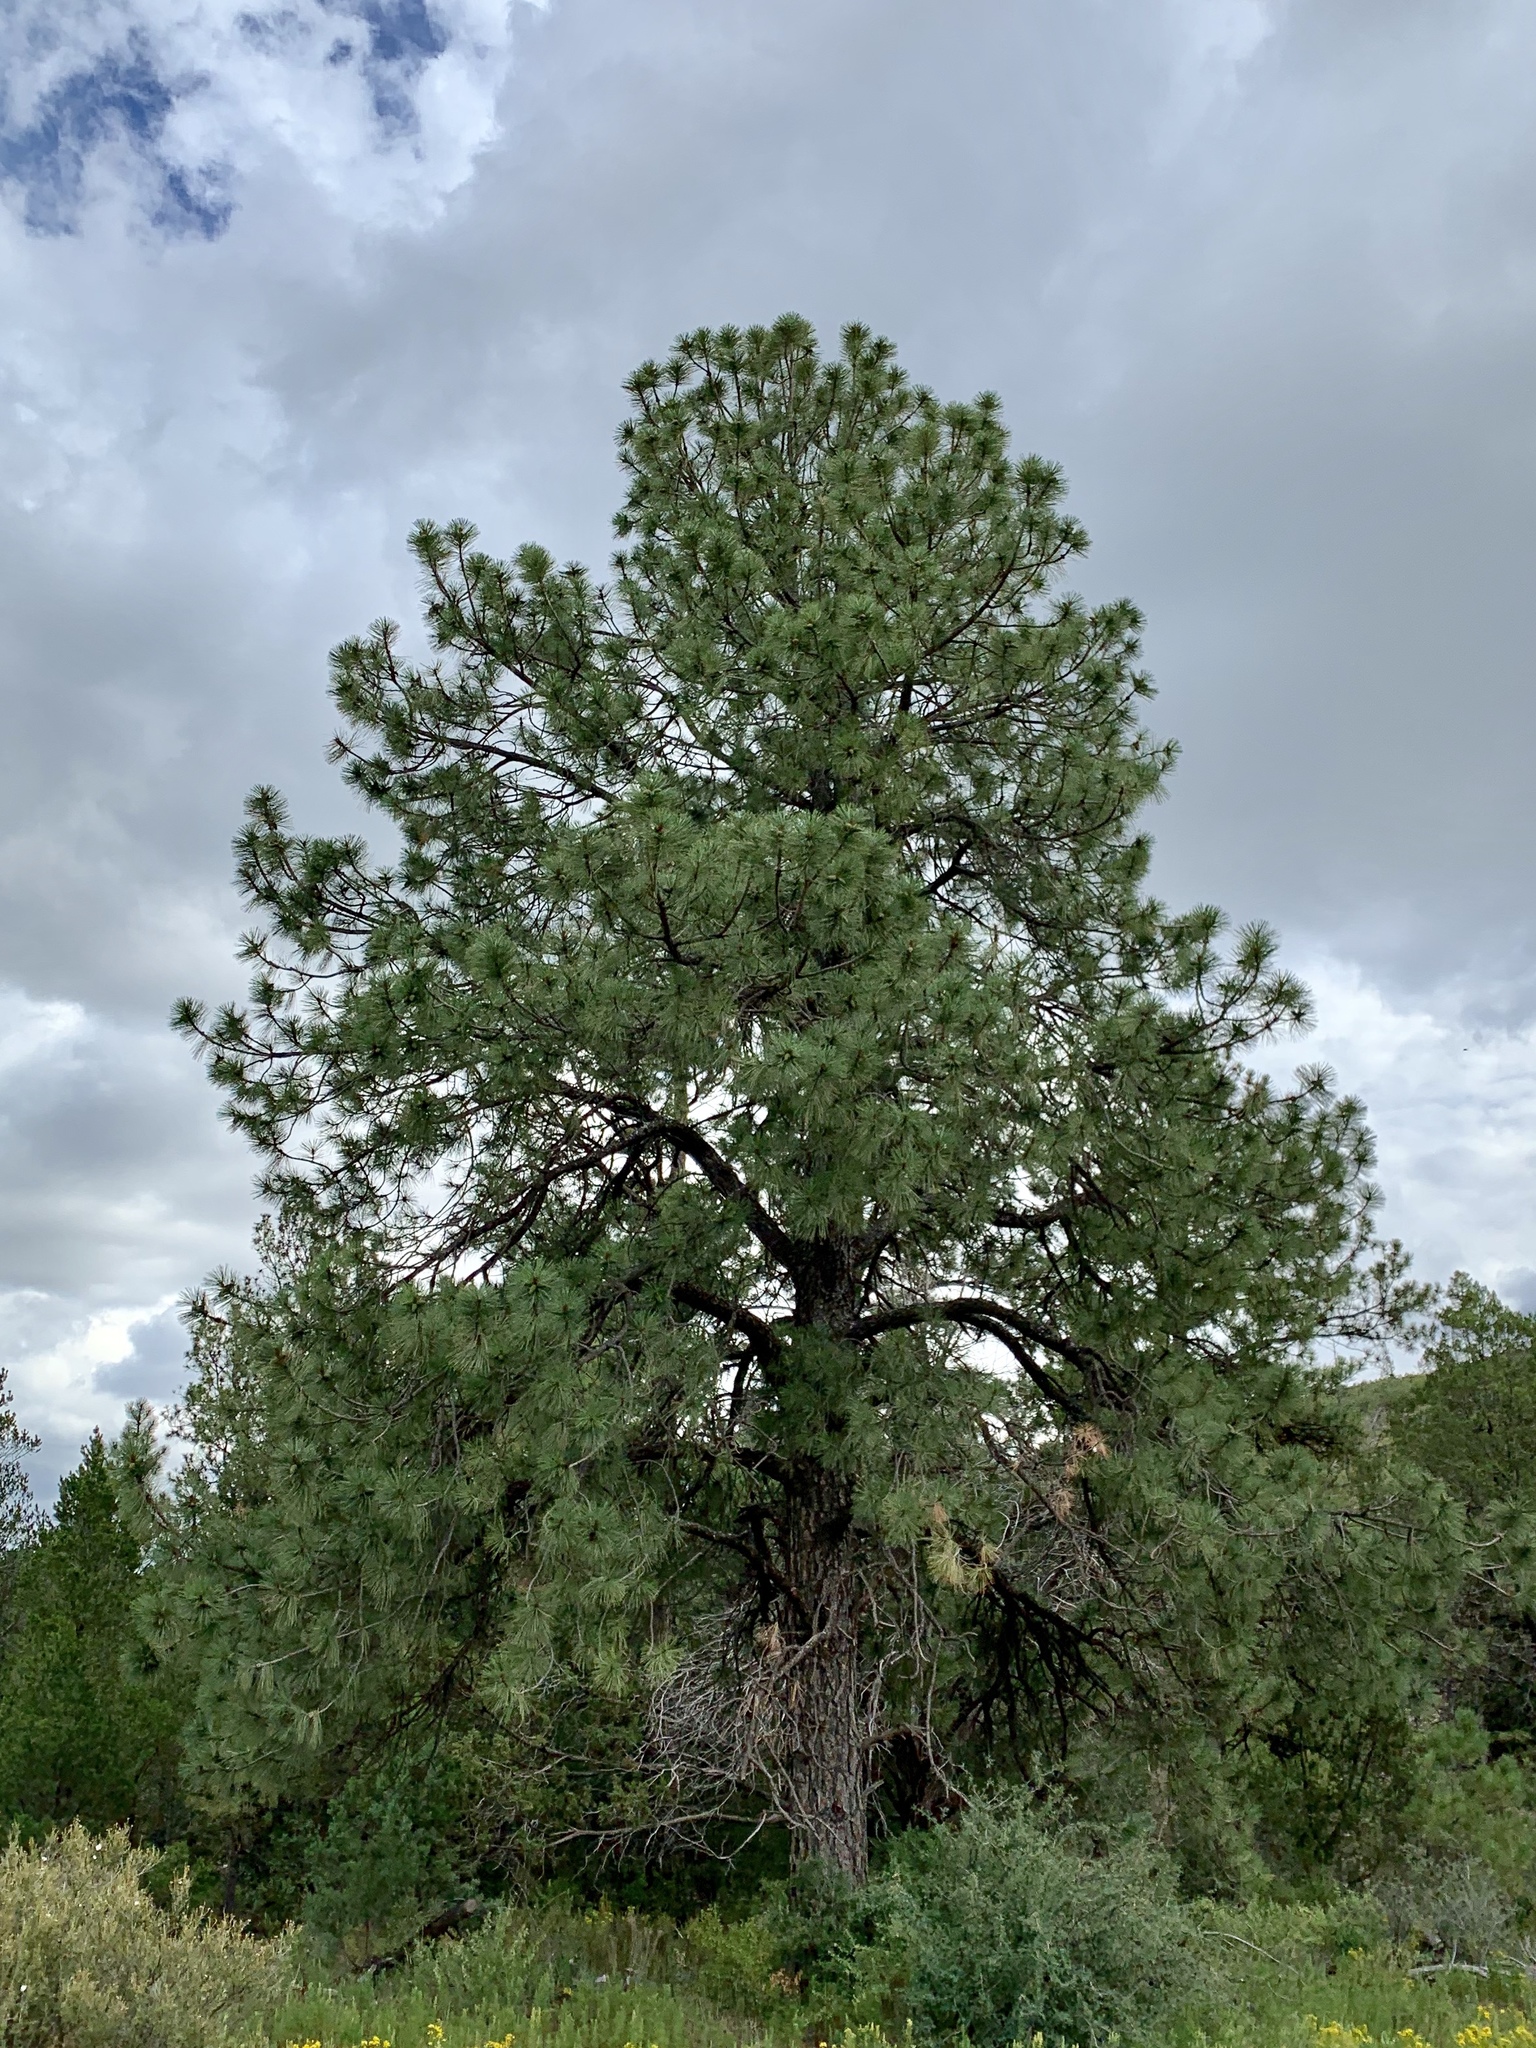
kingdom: Plantae
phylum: Tracheophyta
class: Pinopsida
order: Pinales
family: Pinaceae
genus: Pinus
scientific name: Pinus ponderosa
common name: Western yellow-pine
